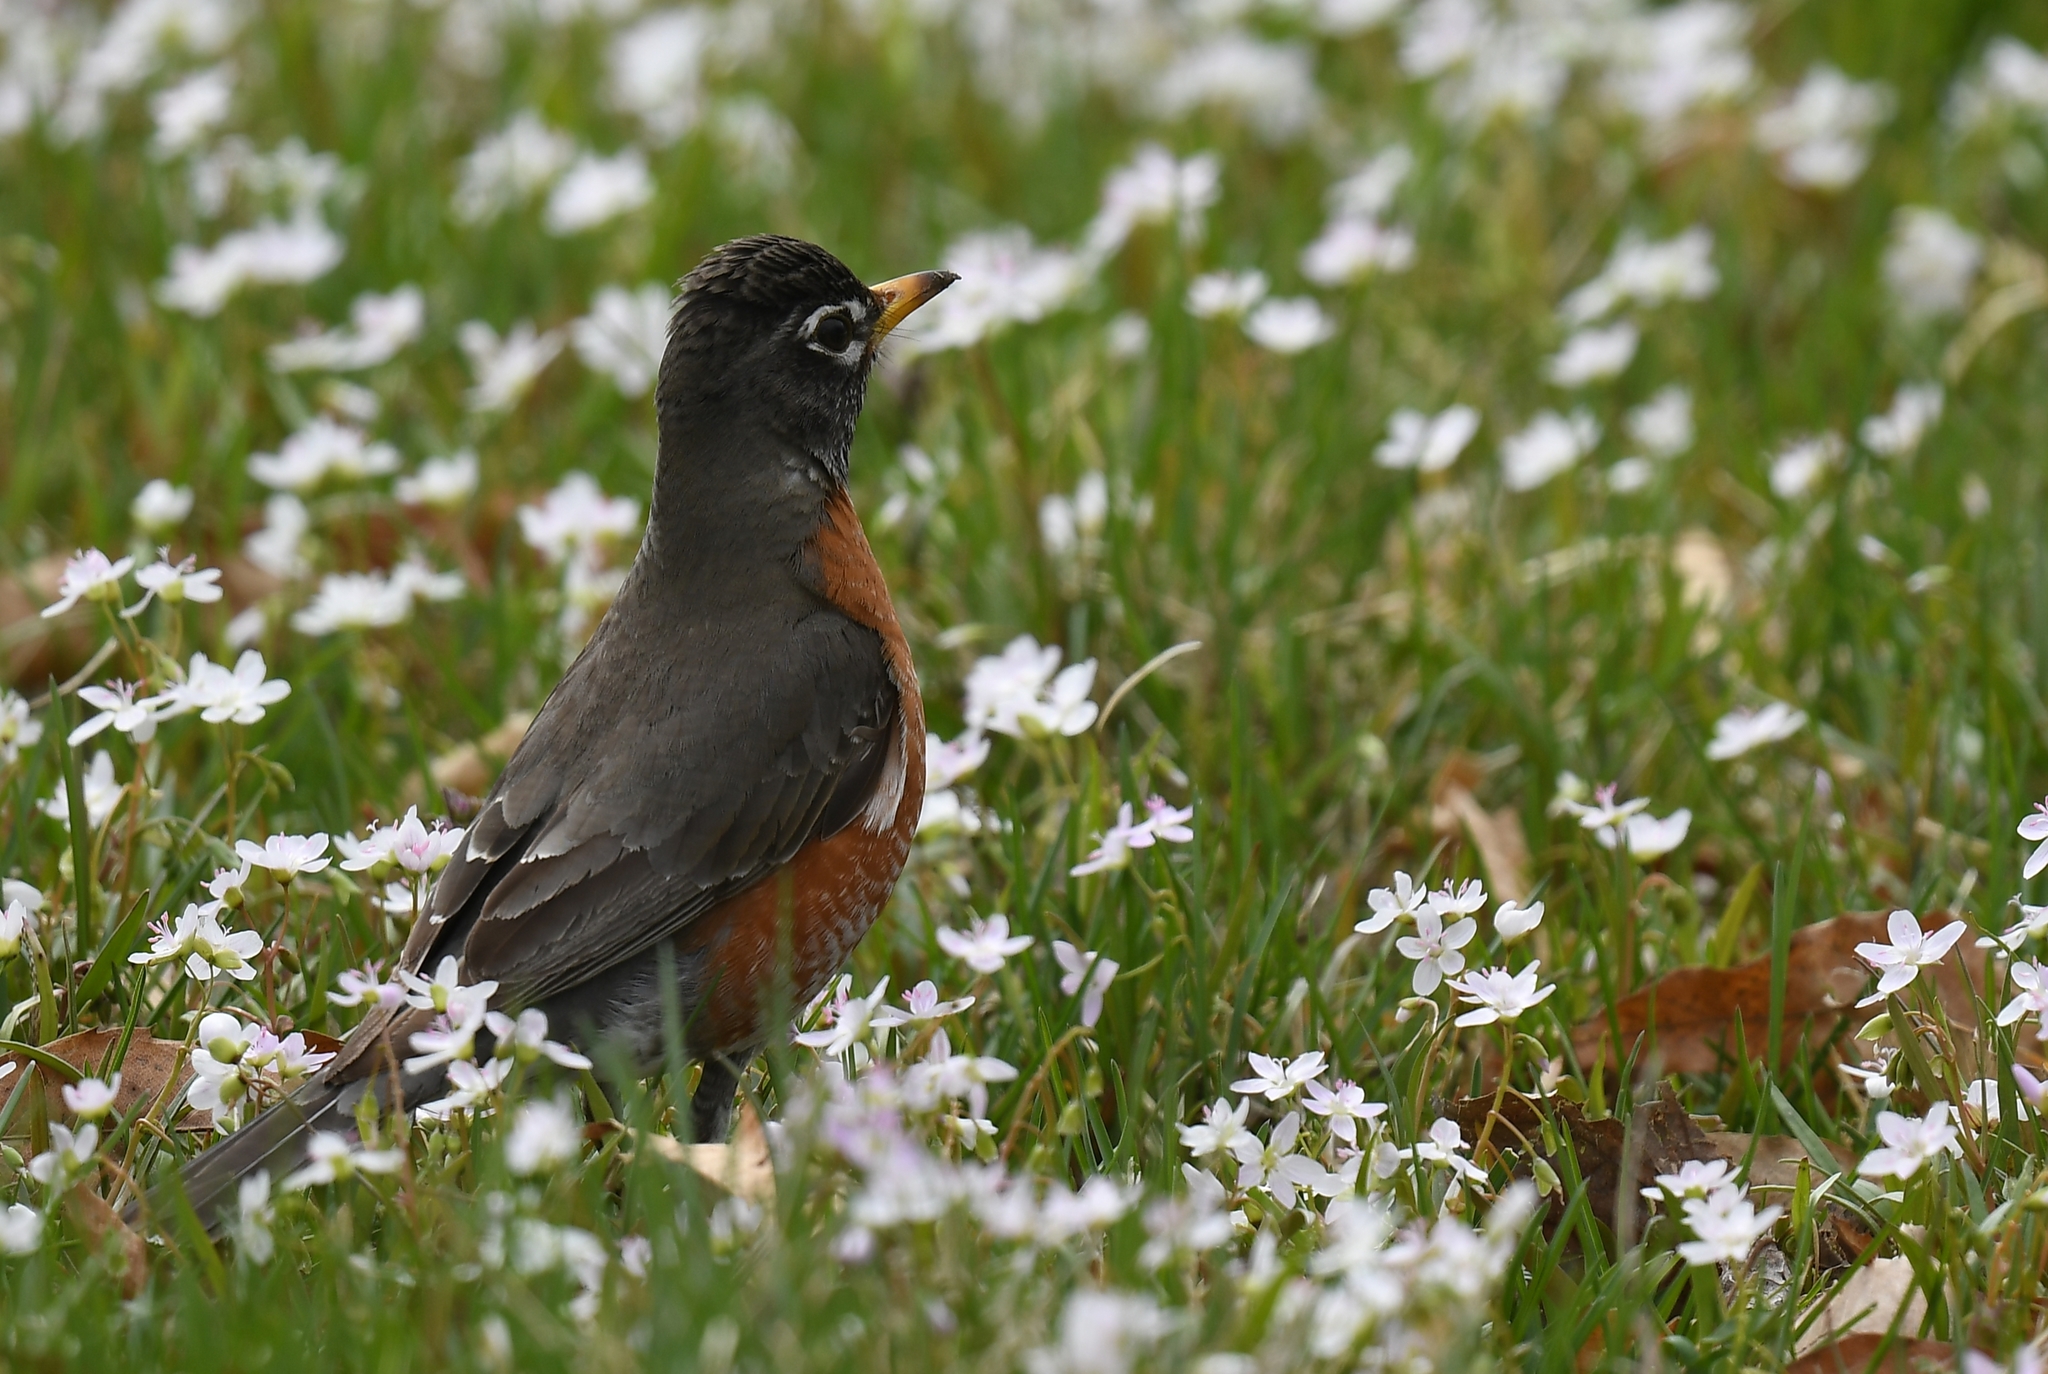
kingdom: Animalia
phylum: Chordata
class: Aves
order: Passeriformes
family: Turdidae
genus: Turdus
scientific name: Turdus migratorius
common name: American robin
